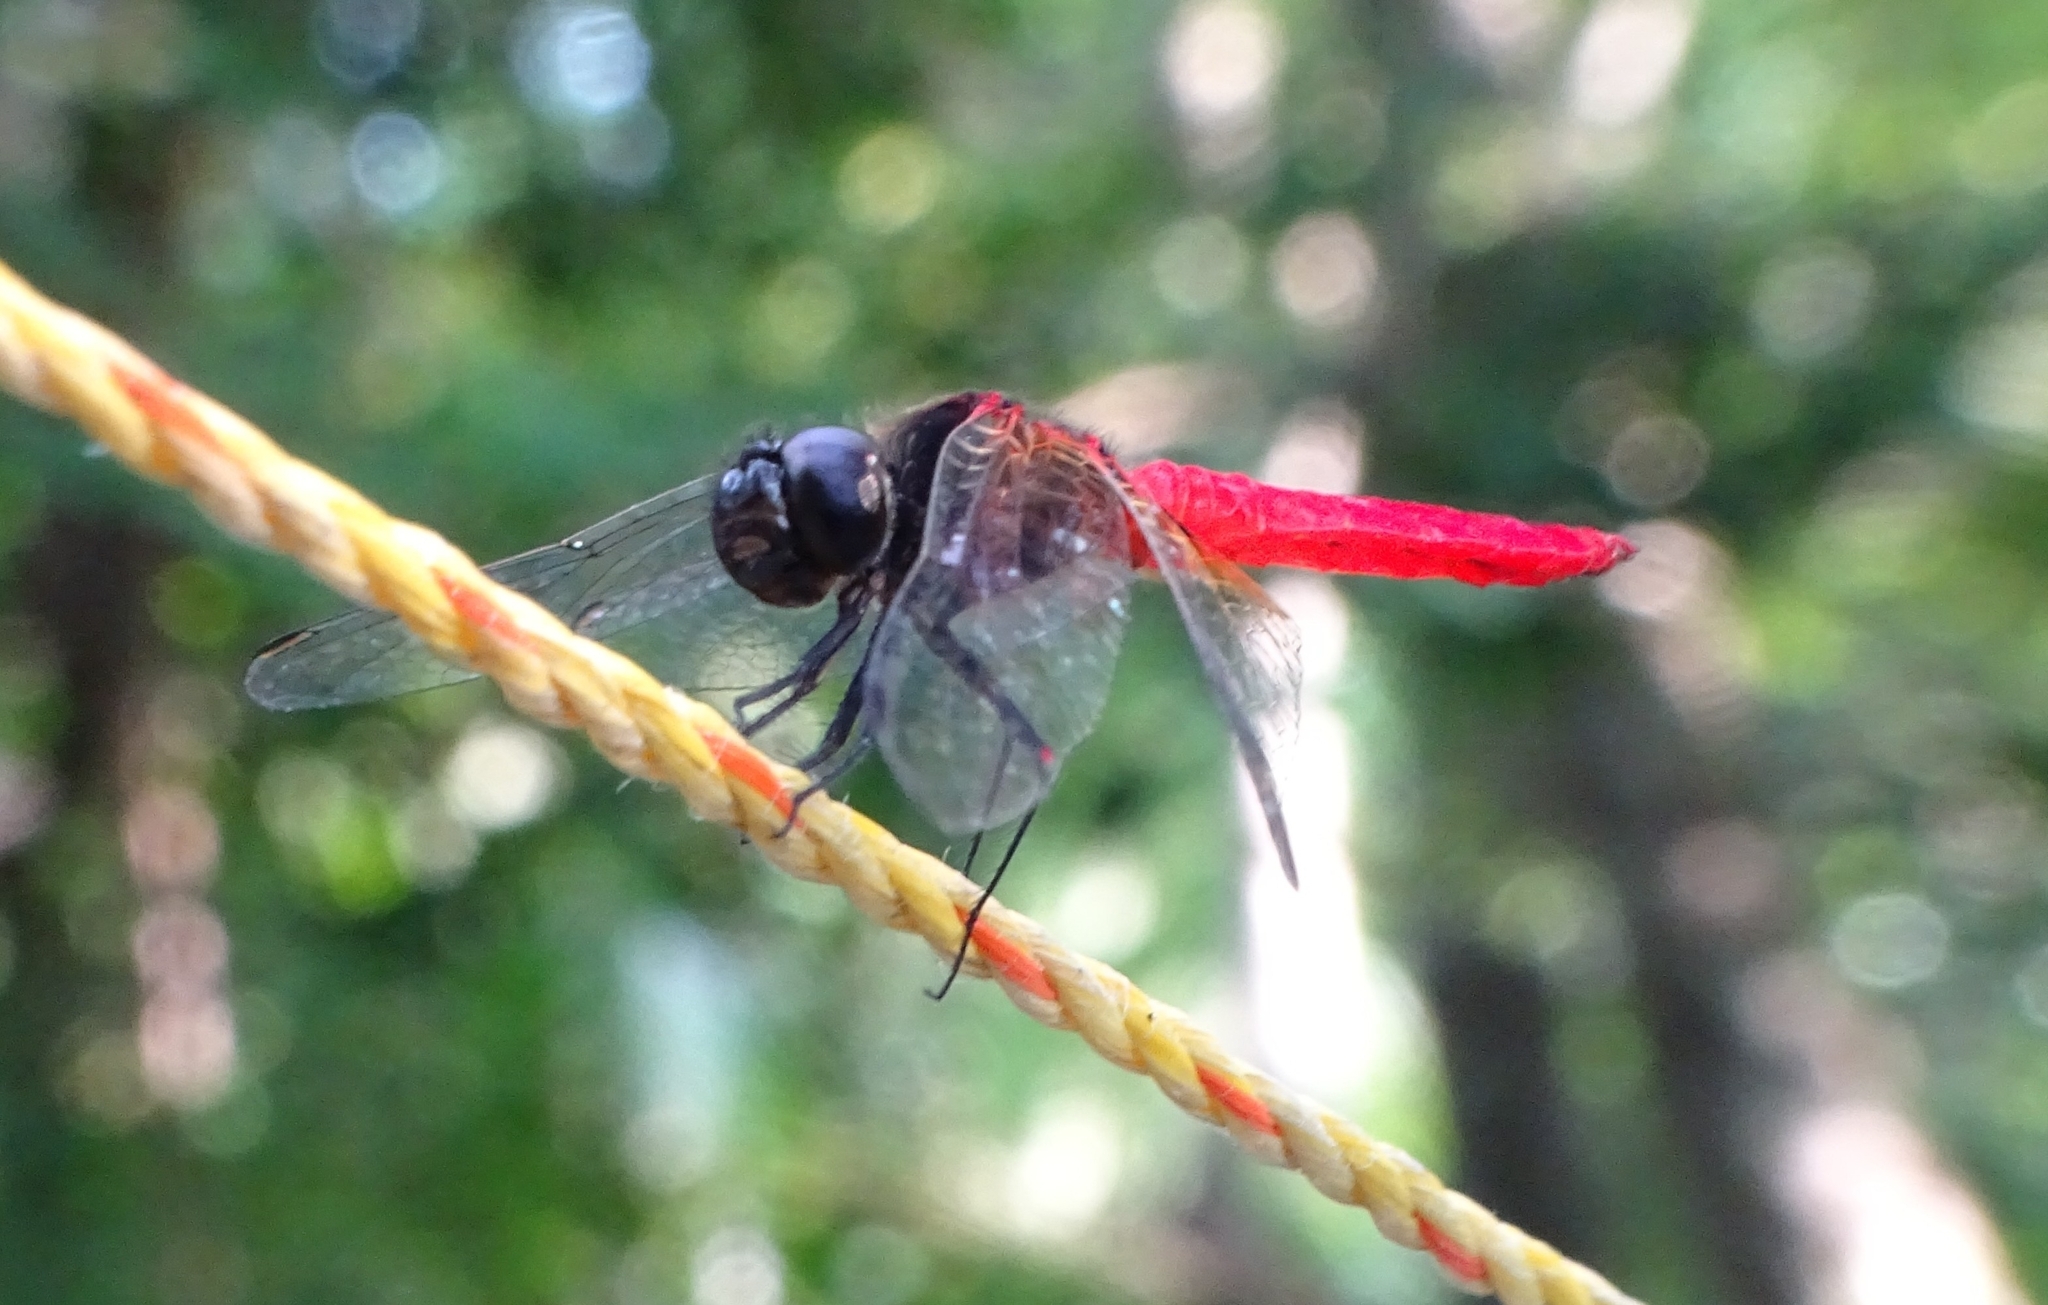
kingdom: Animalia
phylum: Arthropoda
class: Insecta
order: Odonata
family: Libellulidae
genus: Aethriamanta
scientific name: Aethriamanta brevipennis
